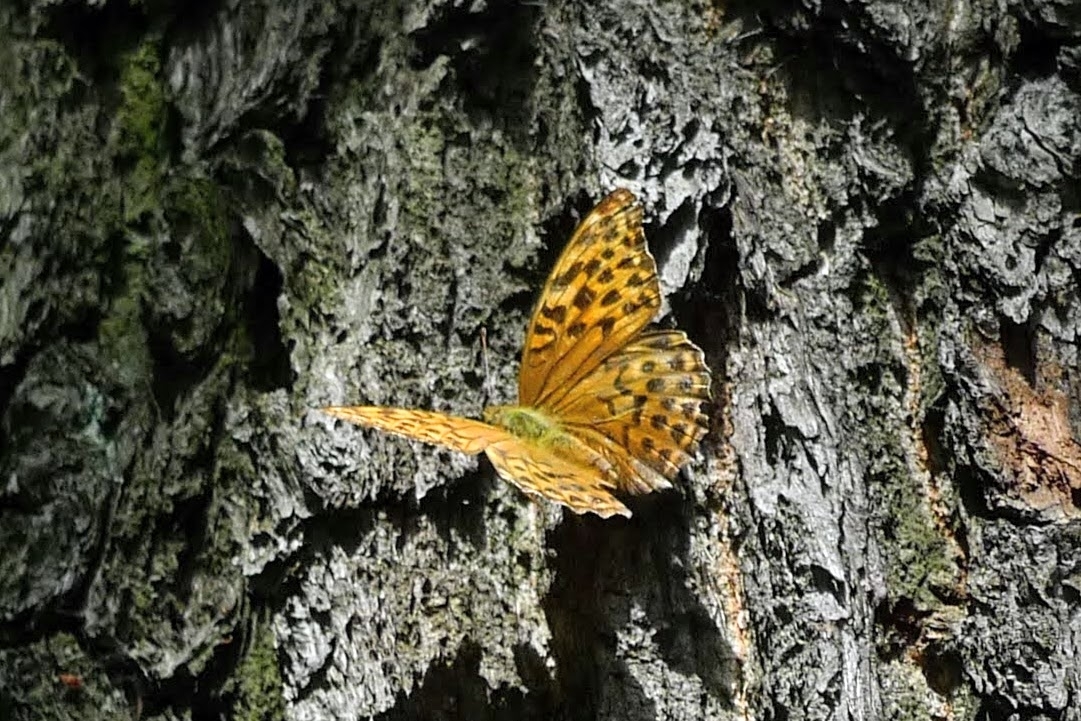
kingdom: Animalia
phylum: Arthropoda
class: Insecta
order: Lepidoptera
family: Nymphalidae
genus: Argynnis
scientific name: Argynnis paphia
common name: Silver-washed fritillary
